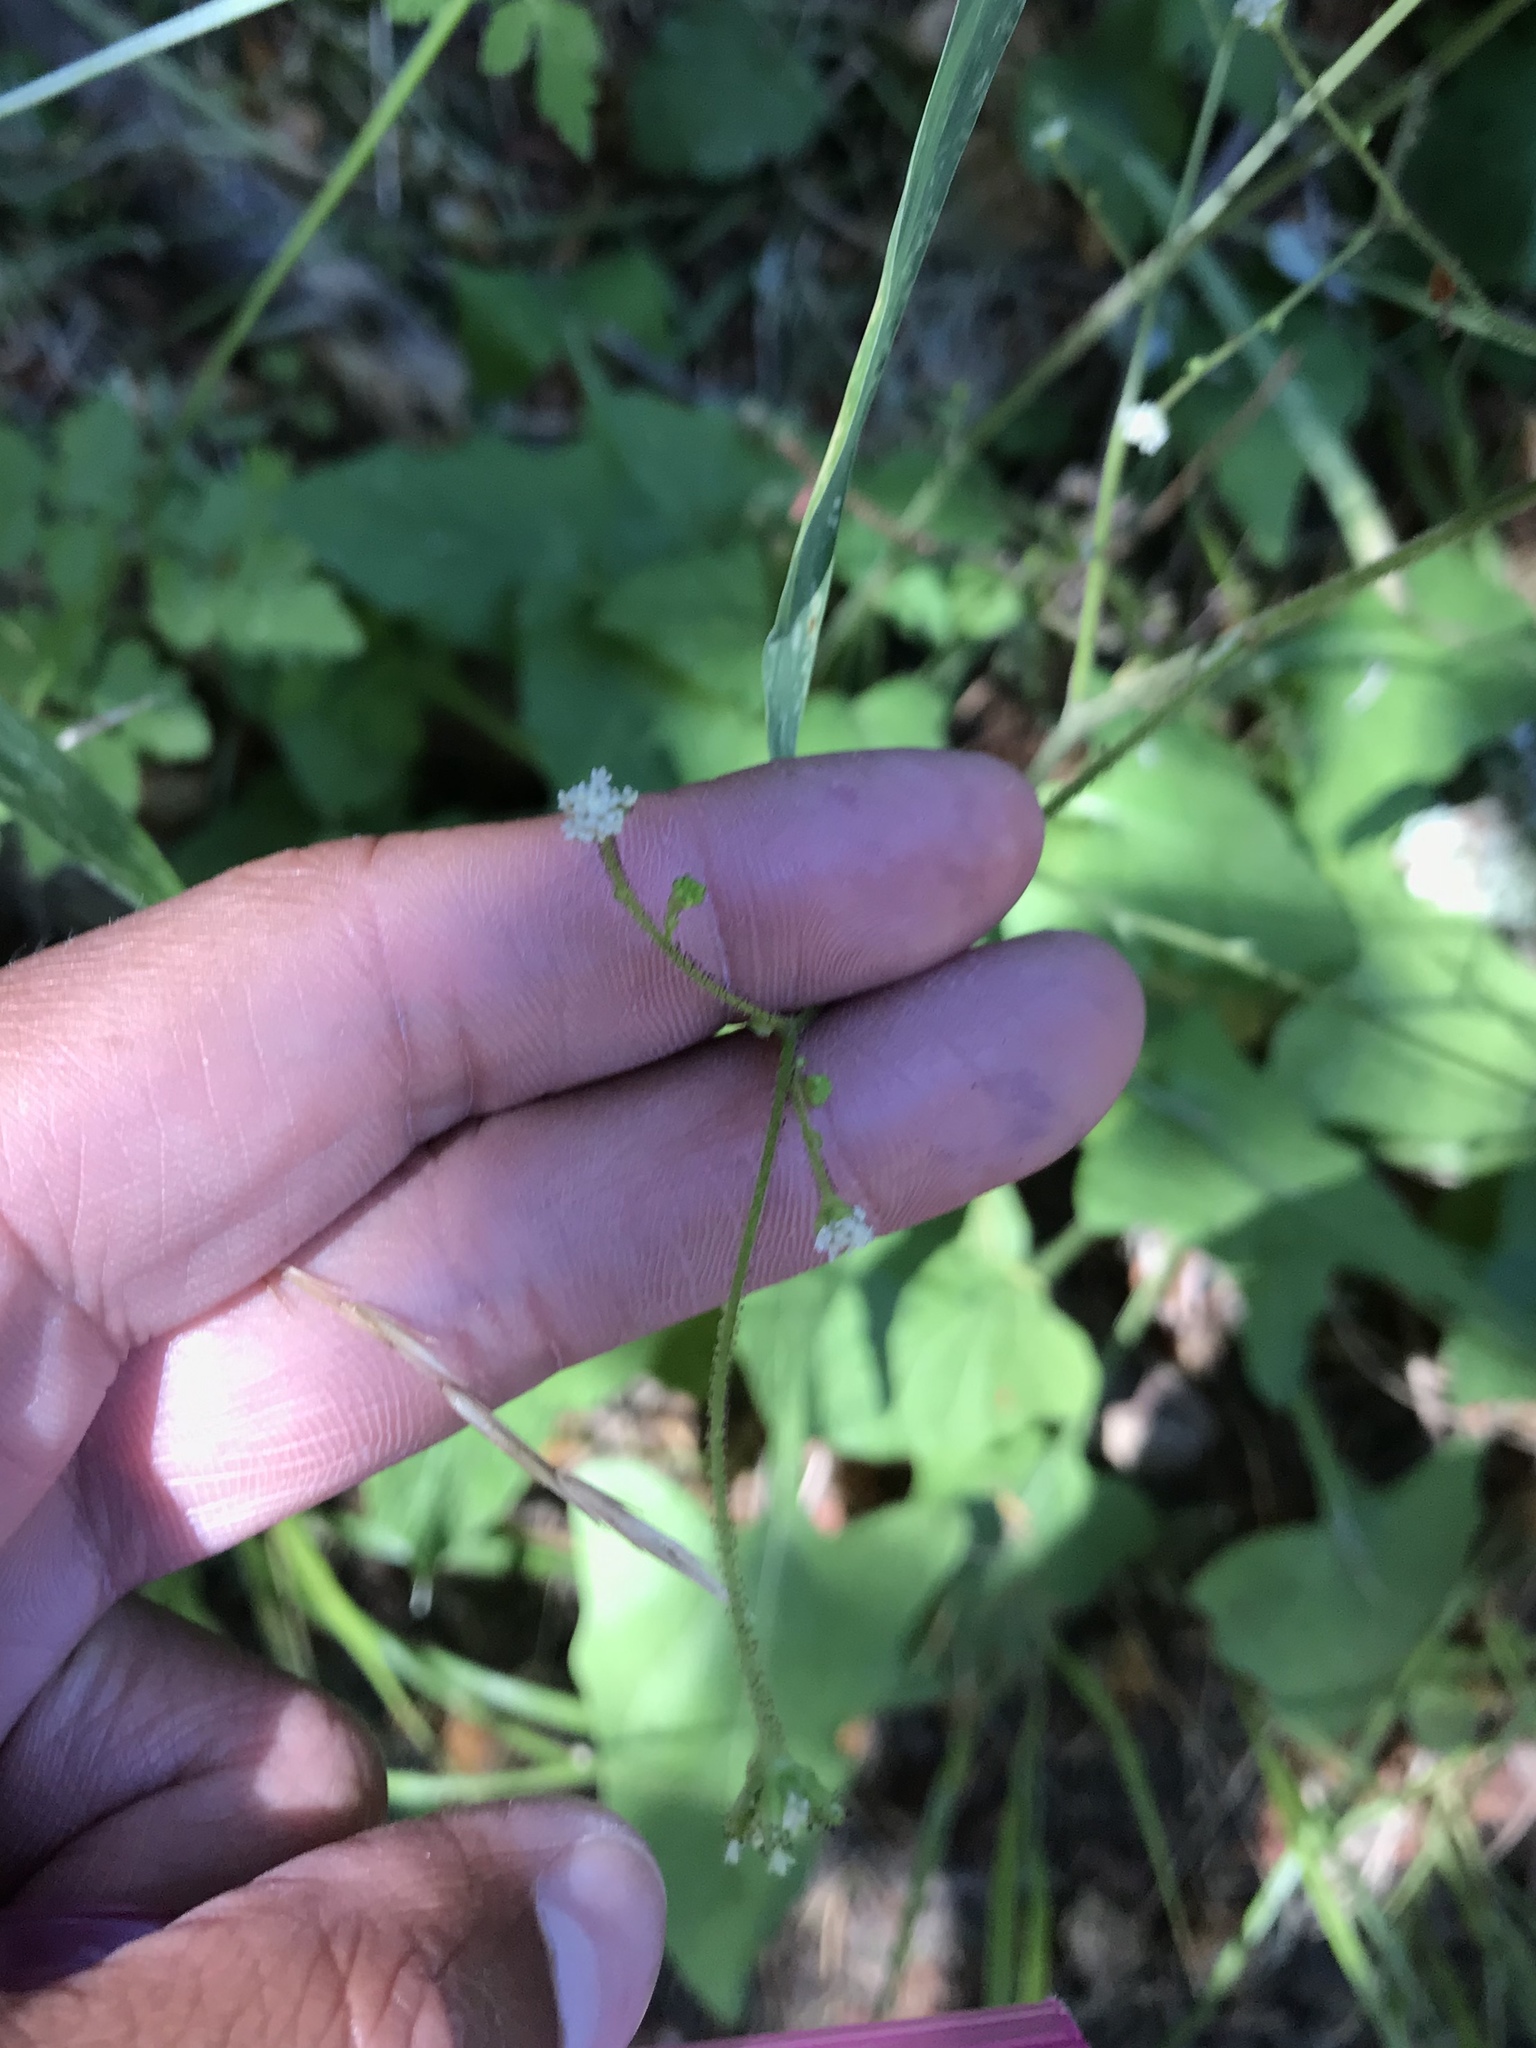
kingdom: Plantae
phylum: Tracheophyta
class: Magnoliopsida
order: Asterales
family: Asteraceae
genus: Adenocaulon
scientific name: Adenocaulon bicolor
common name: Trailplant
